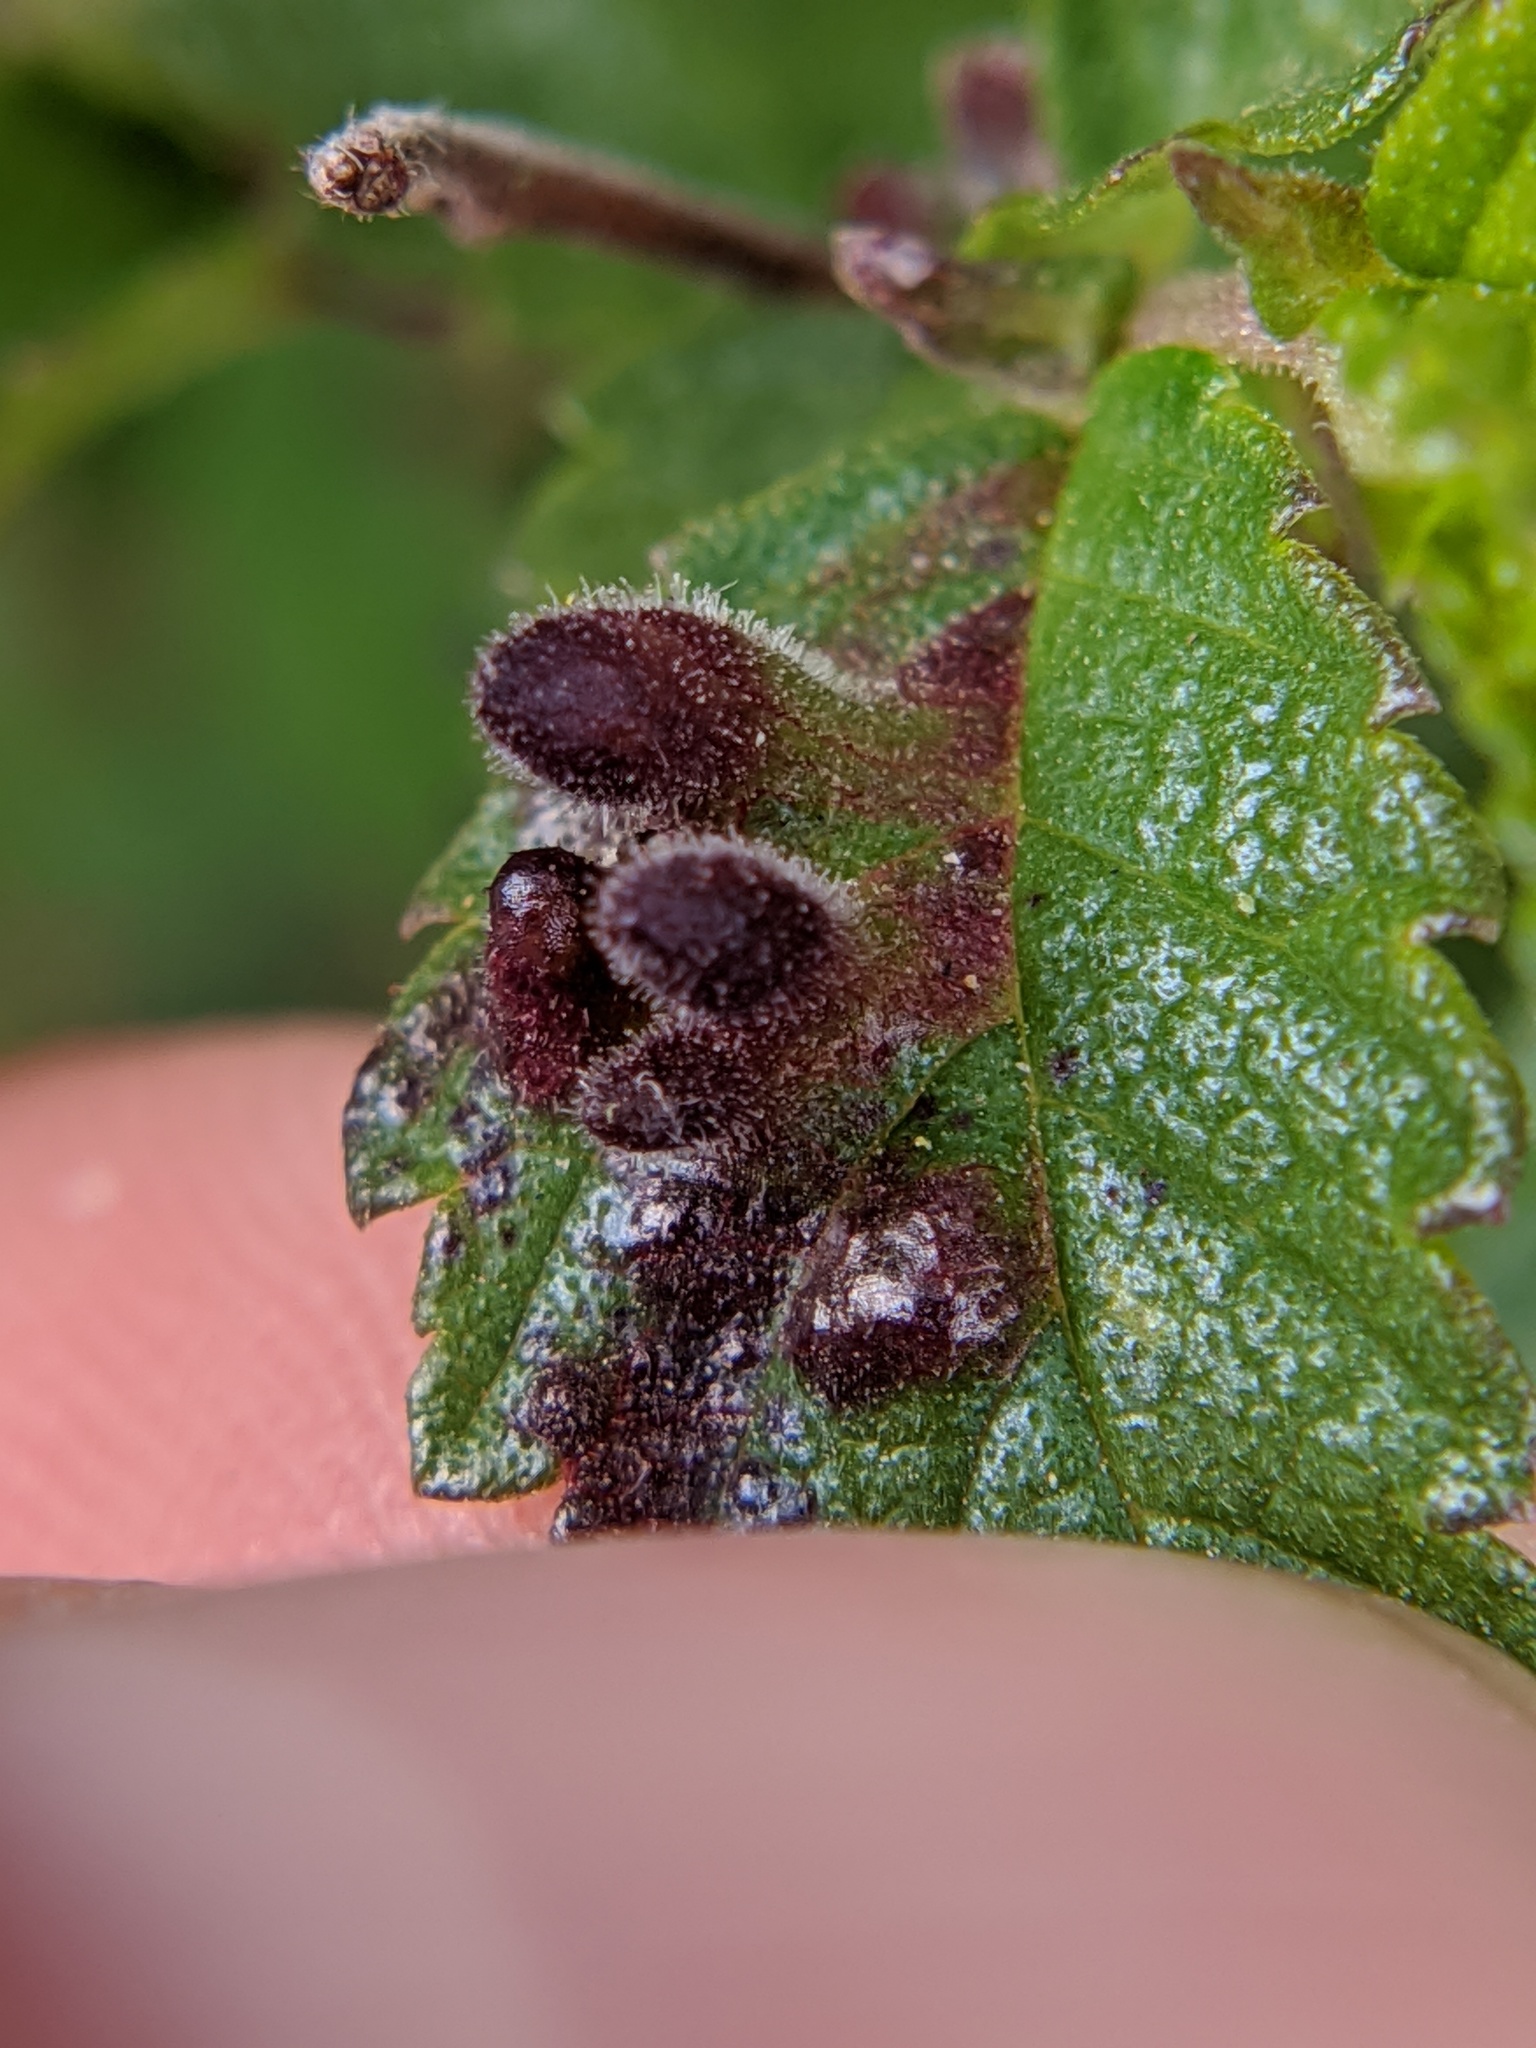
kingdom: Animalia
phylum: Arthropoda
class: Insecta
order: Hemiptera
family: Aphididae
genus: Tetraneura
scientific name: Tetraneura nigriabdominalis
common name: Aphid
